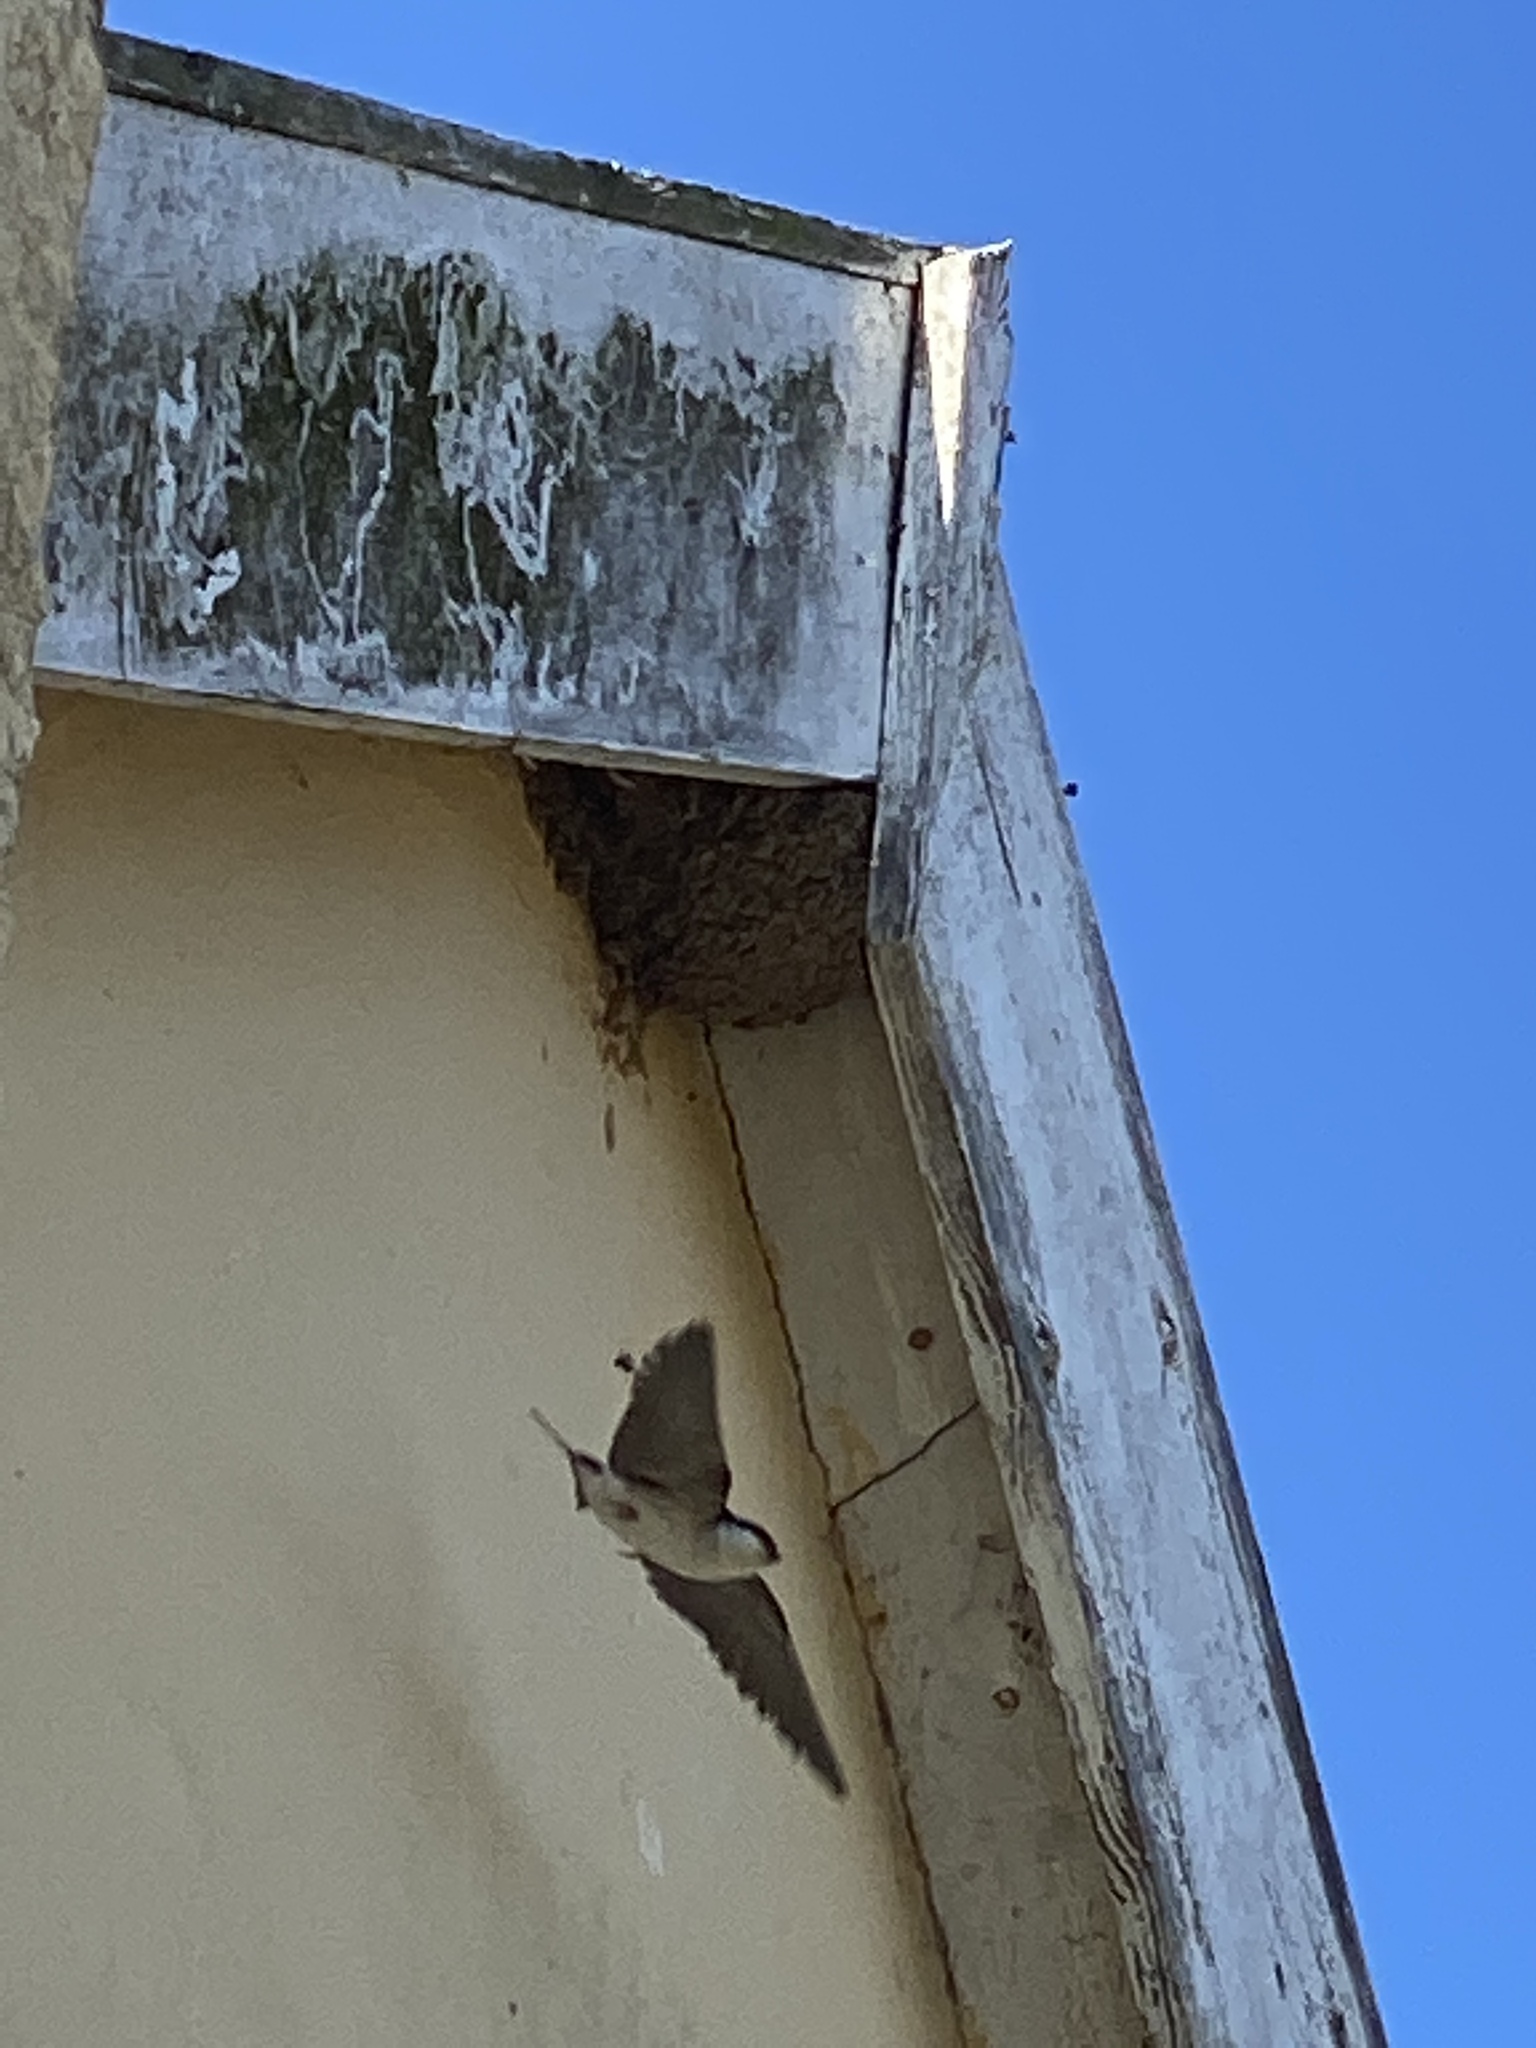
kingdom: Animalia
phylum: Chordata
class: Aves
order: Passeriformes
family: Hirundinidae
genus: Delichon
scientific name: Delichon urbicum
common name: Common house martin
